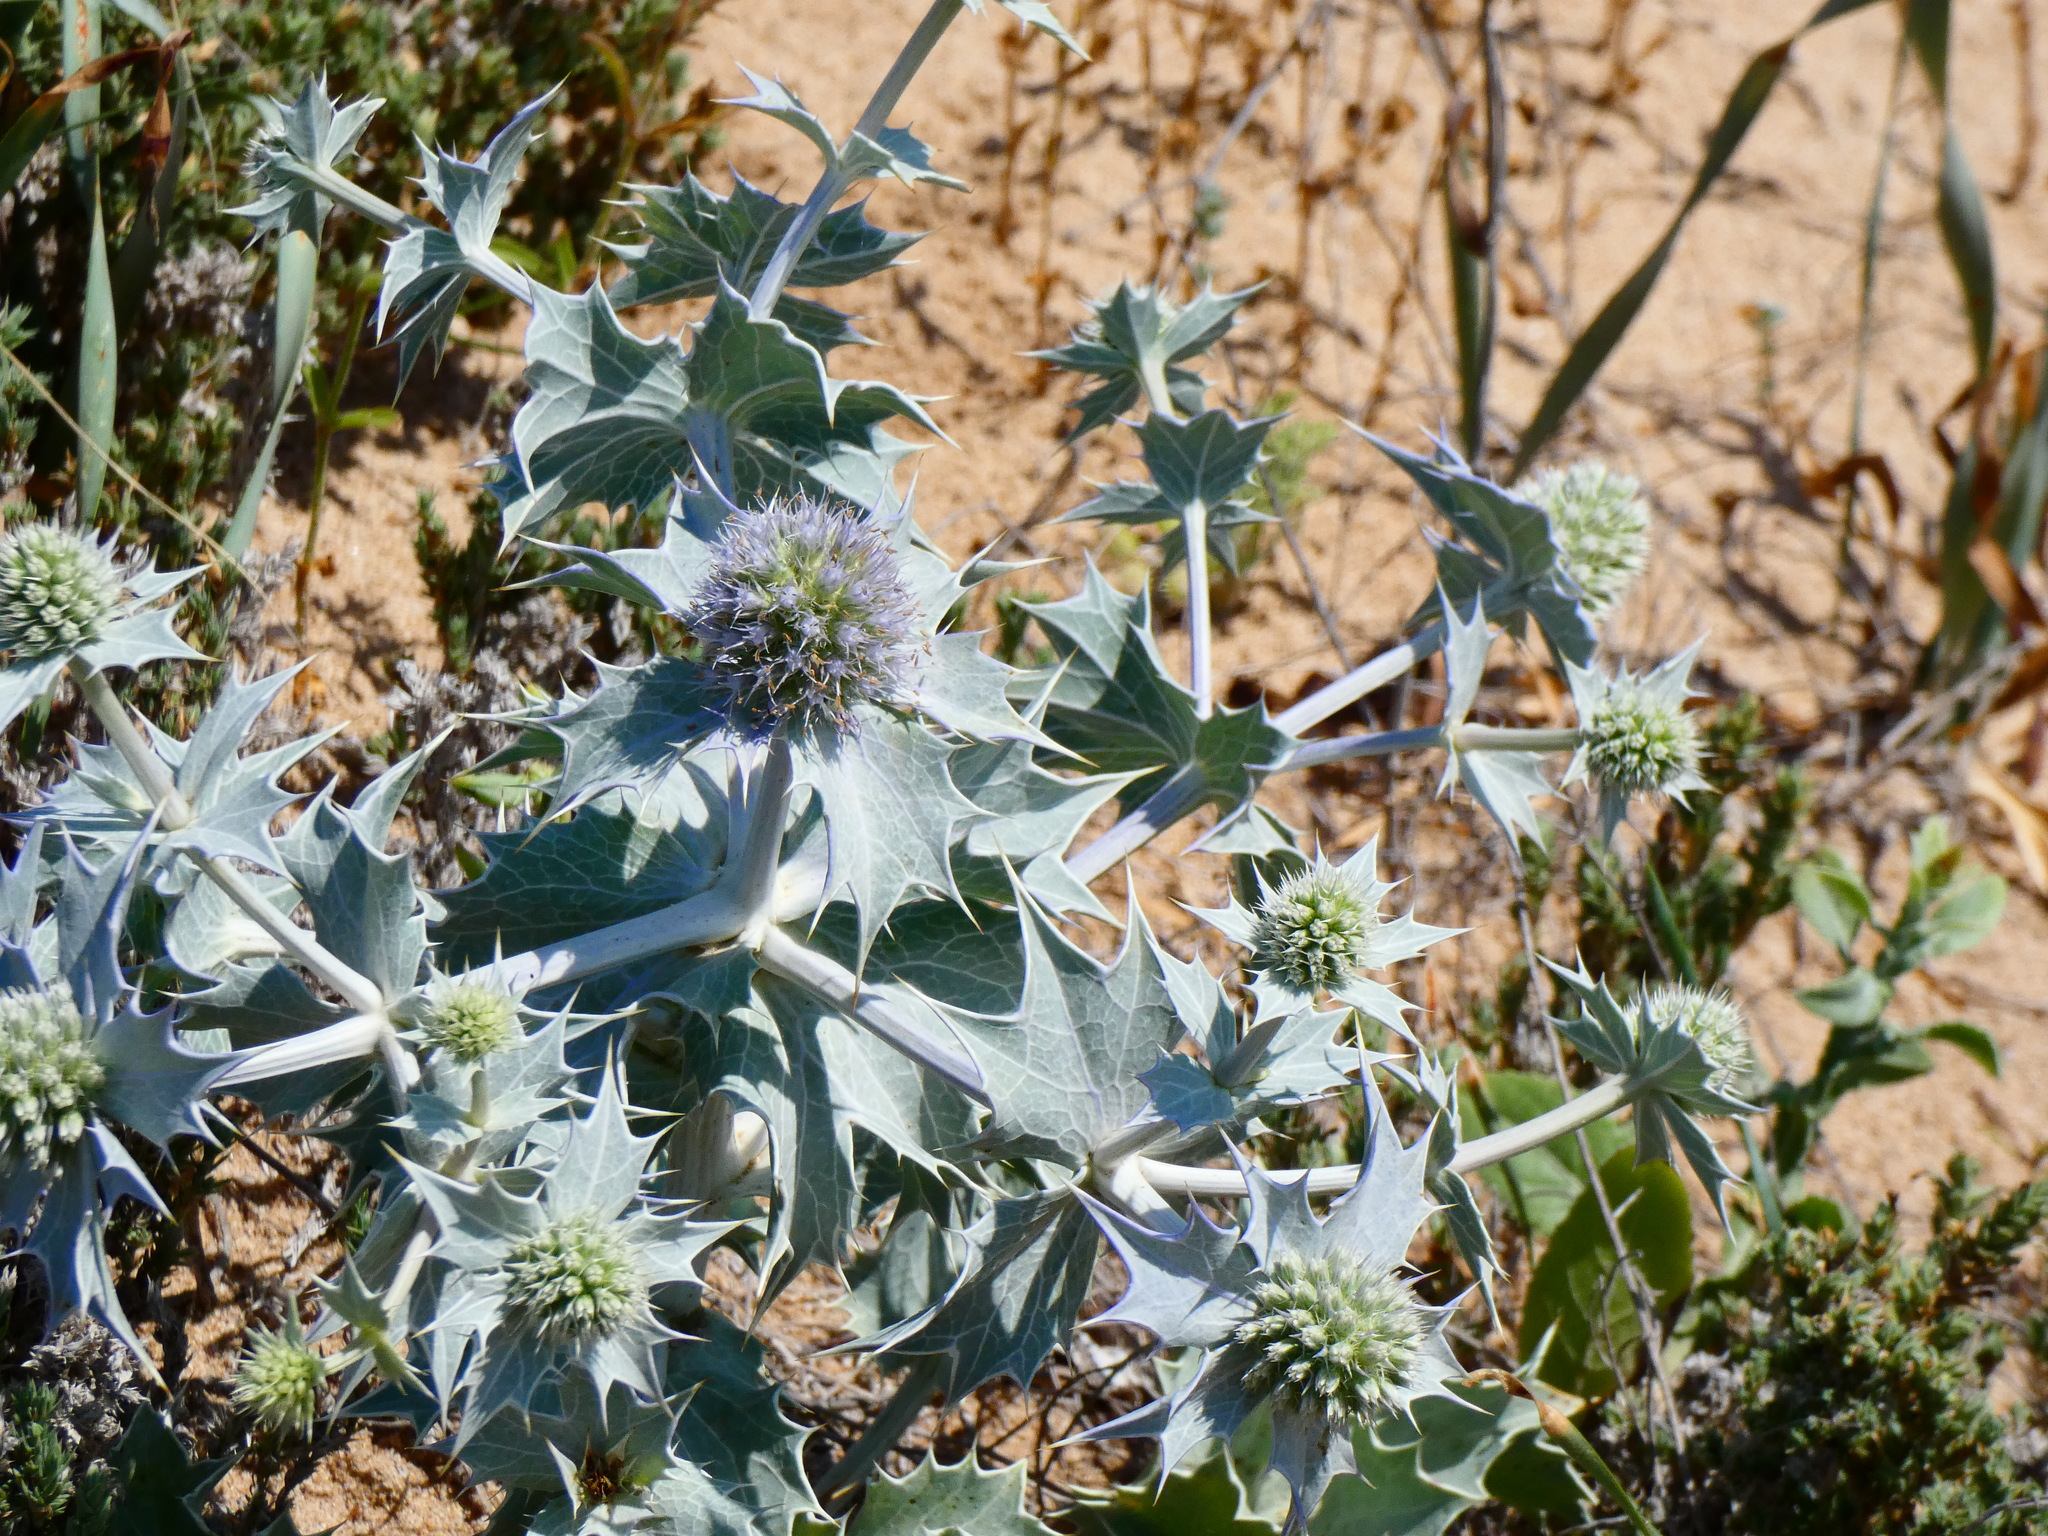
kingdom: Plantae
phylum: Tracheophyta
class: Magnoliopsida
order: Apiales
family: Apiaceae
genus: Eryngium
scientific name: Eryngium maritimum
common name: Sea-holly
